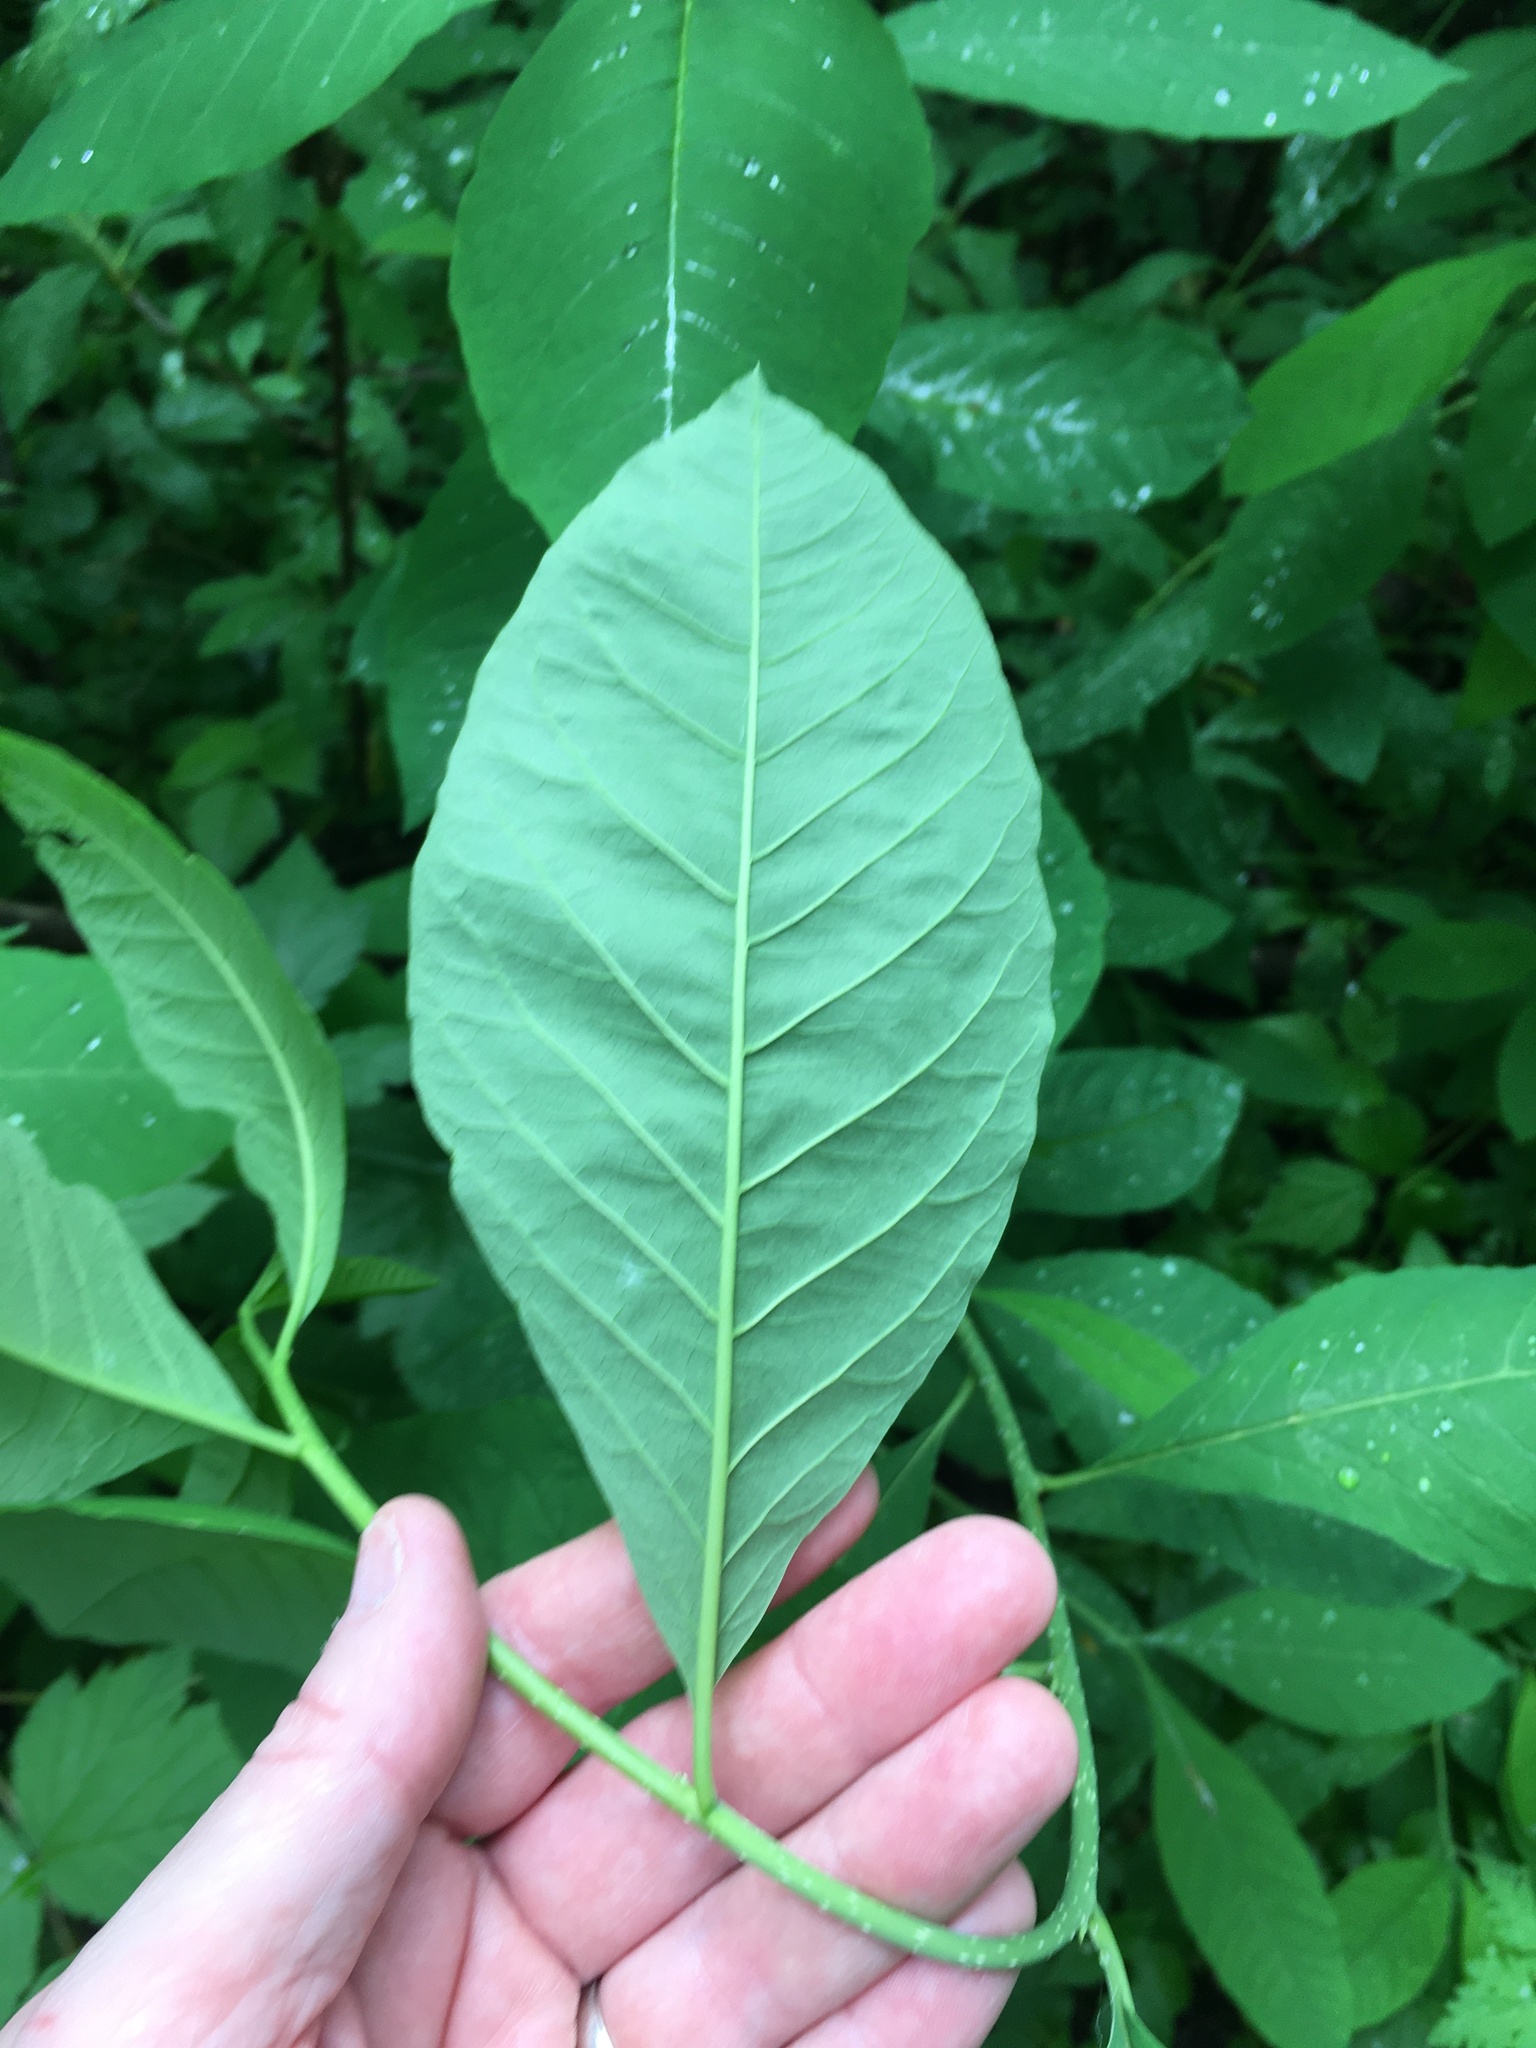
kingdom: Plantae
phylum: Tracheophyta
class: Magnoliopsida
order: Rosales
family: Rosaceae
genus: Oemleria
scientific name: Oemleria cerasiformis
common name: Osoberry
